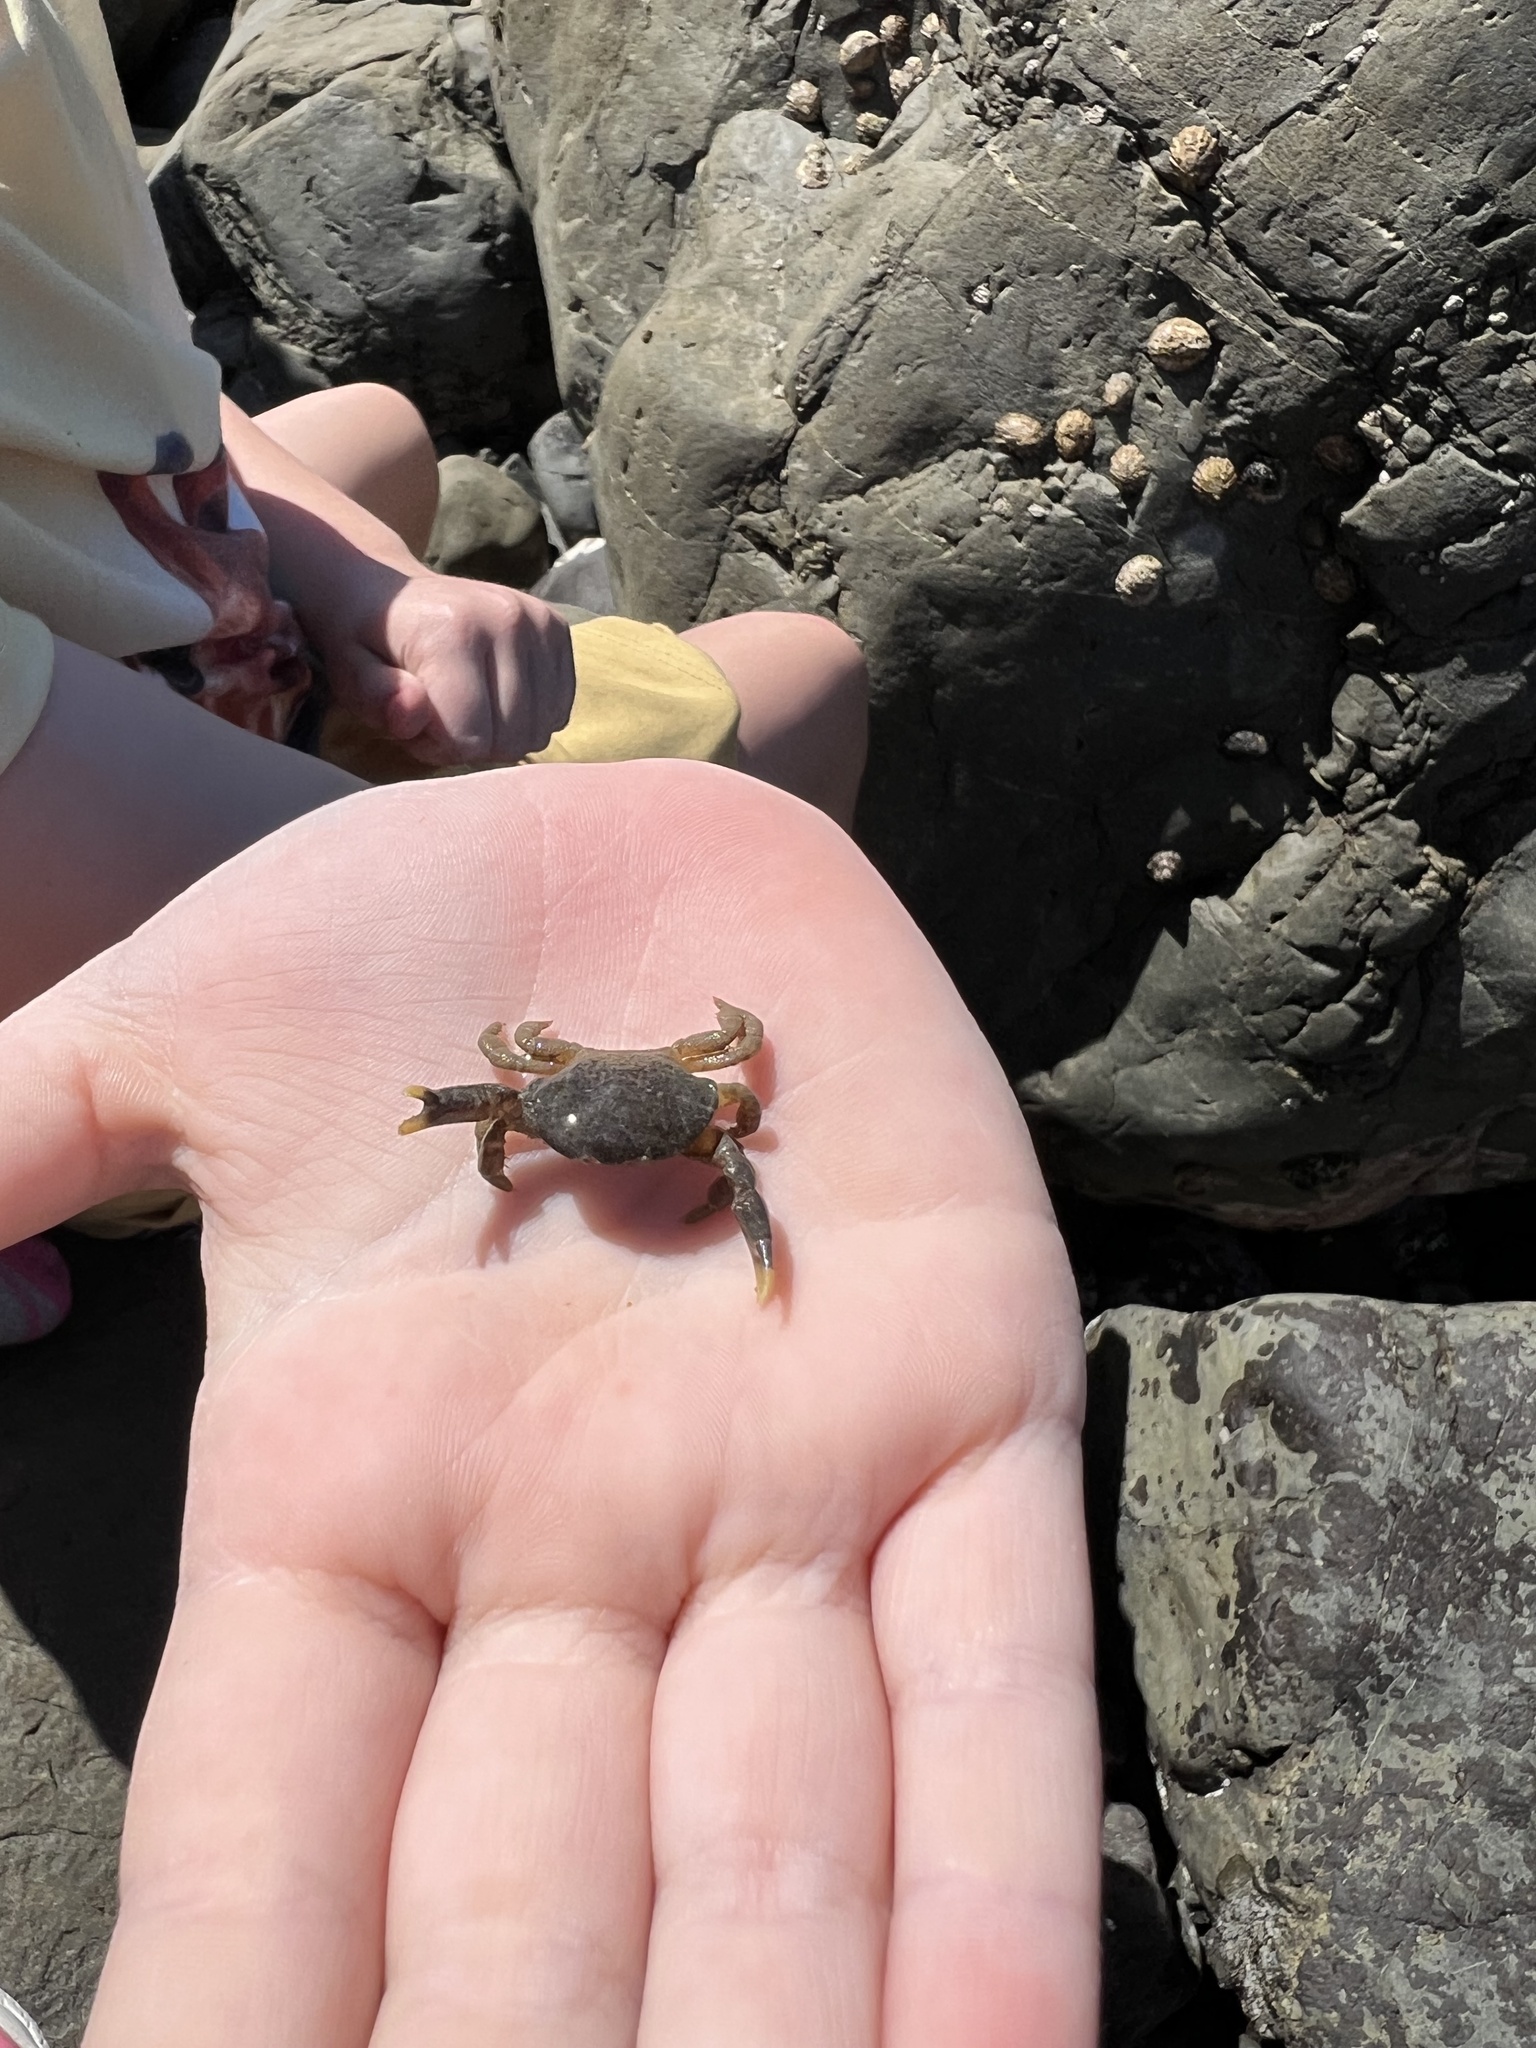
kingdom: Animalia
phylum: Arthropoda
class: Malacostraca
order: Decapoda
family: Heteroziidae
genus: Heterozius
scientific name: Heterozius rotundifrons
